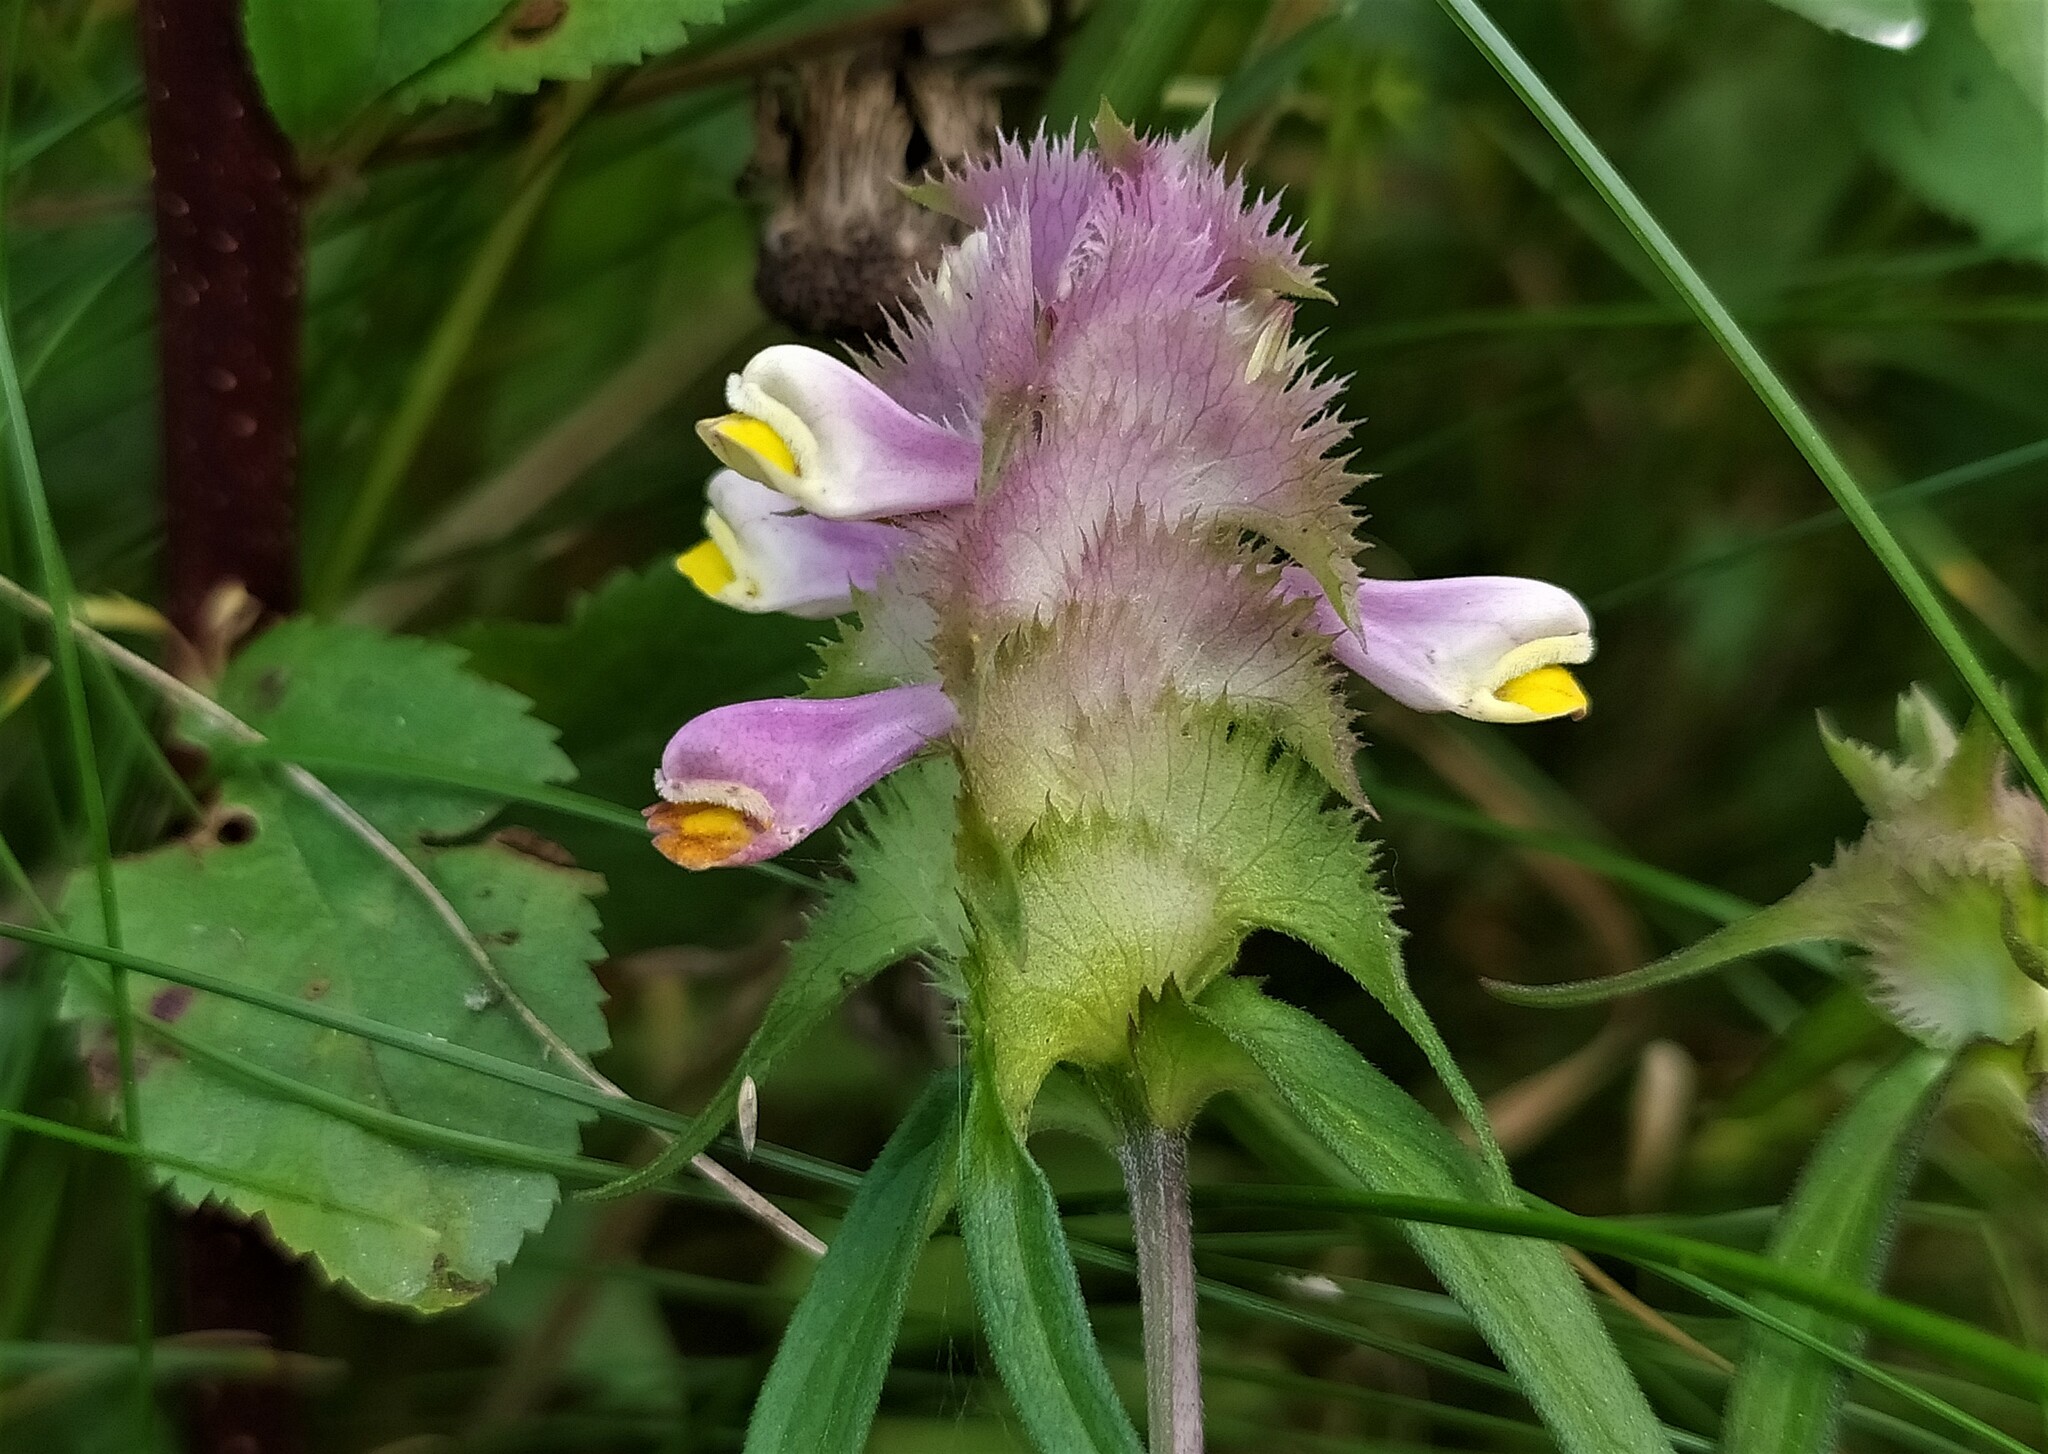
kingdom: Plantae
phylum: Tracheophyta
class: Magnoliopsida
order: Lamiales
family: Orobanchaceae
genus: Melampyrum
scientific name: Melampyrum cristatum
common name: Crested cow-wheat
